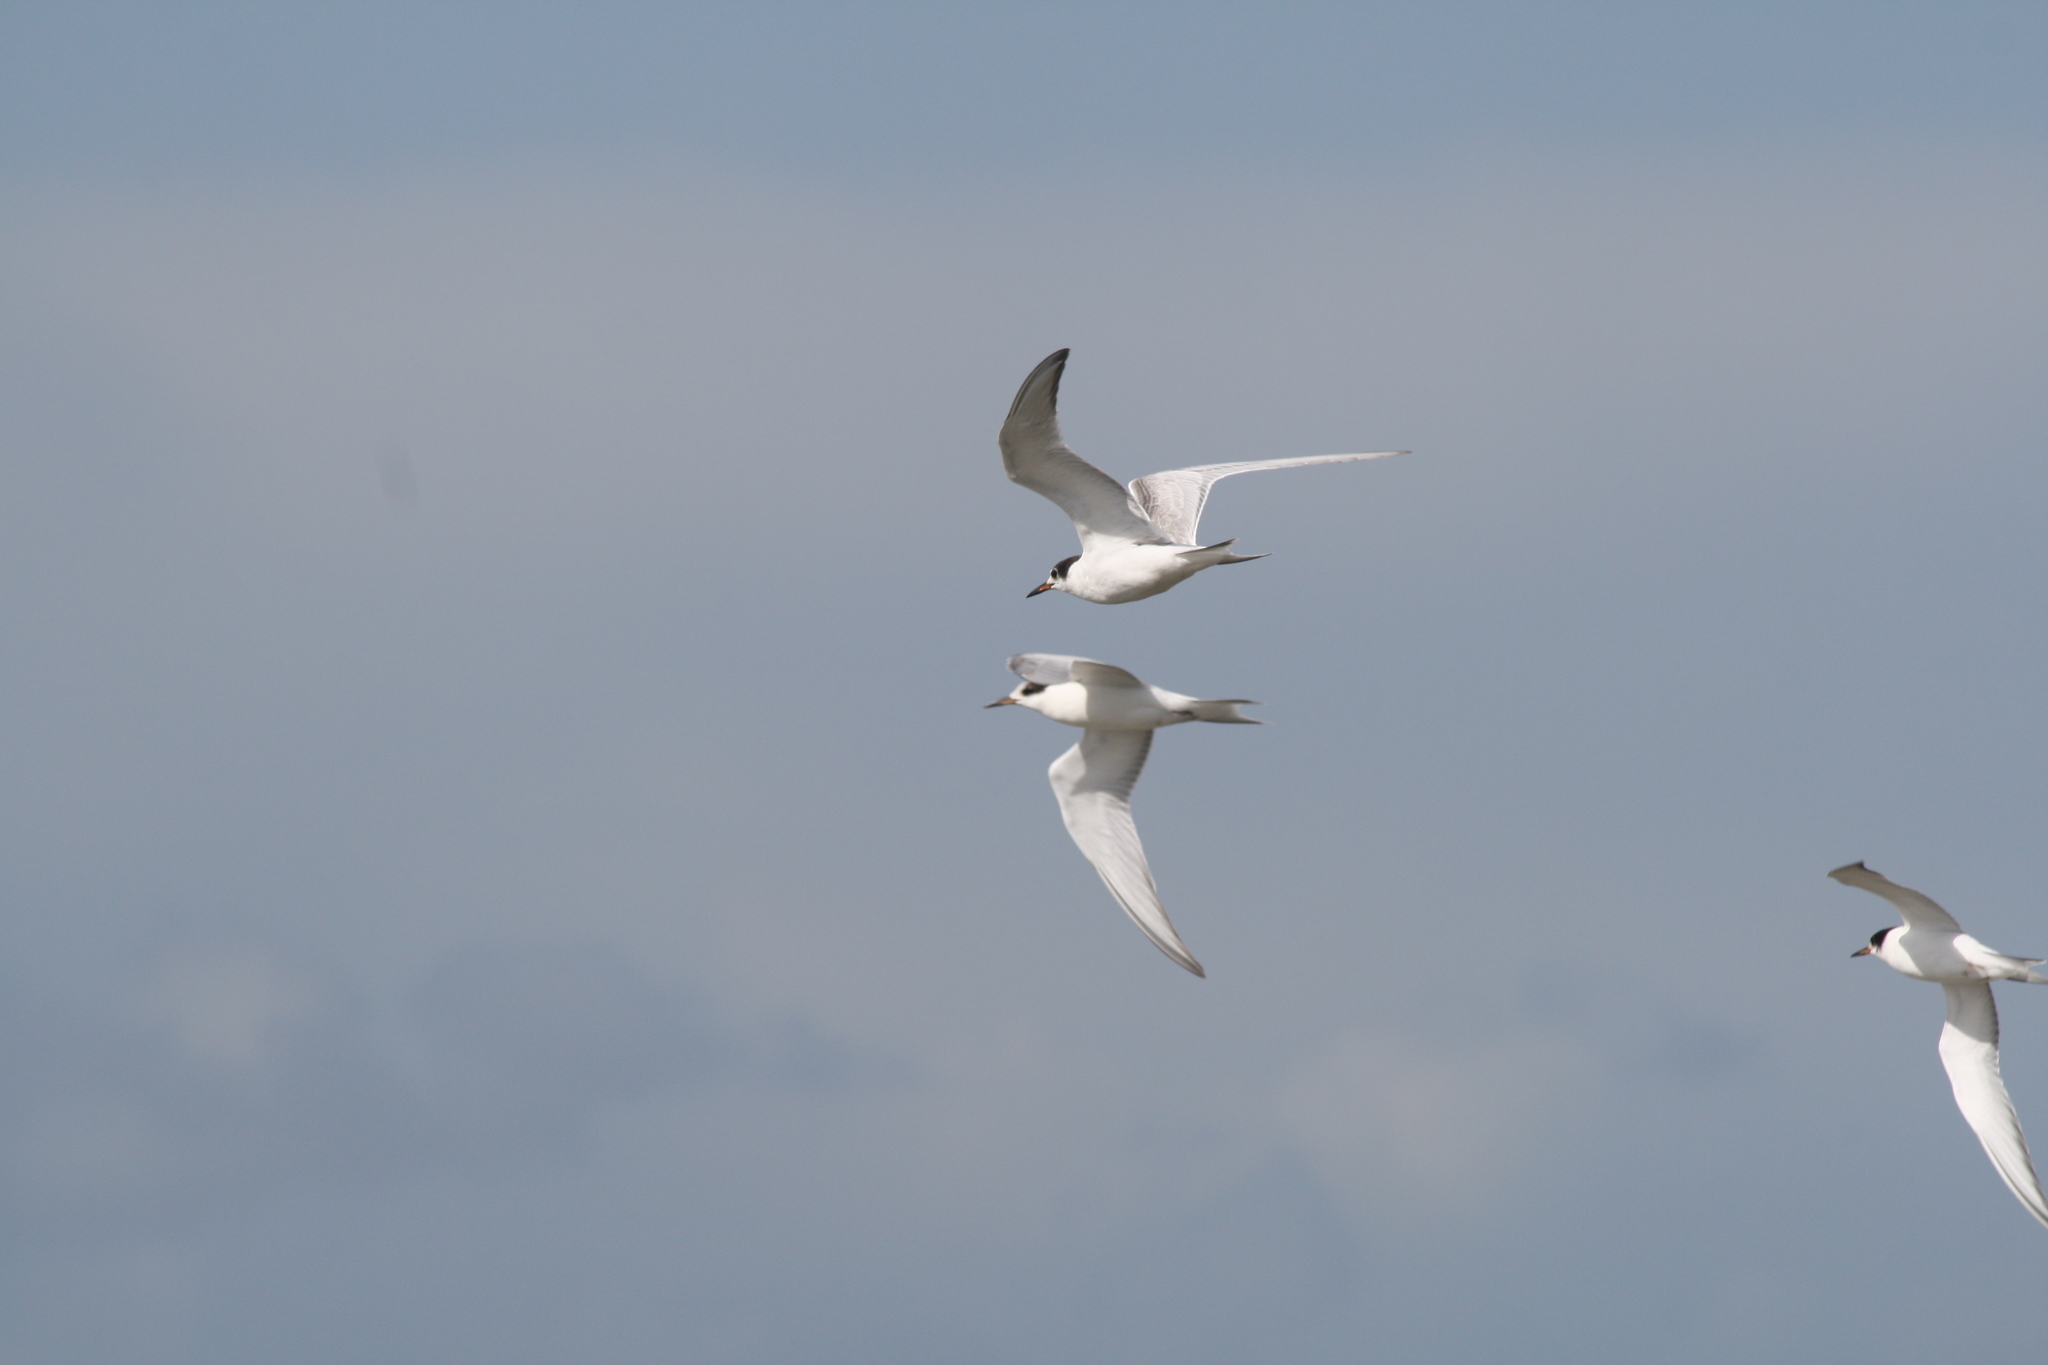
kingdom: Animalia
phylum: Chordata
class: Aves
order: Charadriiformes
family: Laridae
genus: Sterna
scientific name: Sterna hirundo
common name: Common tern
